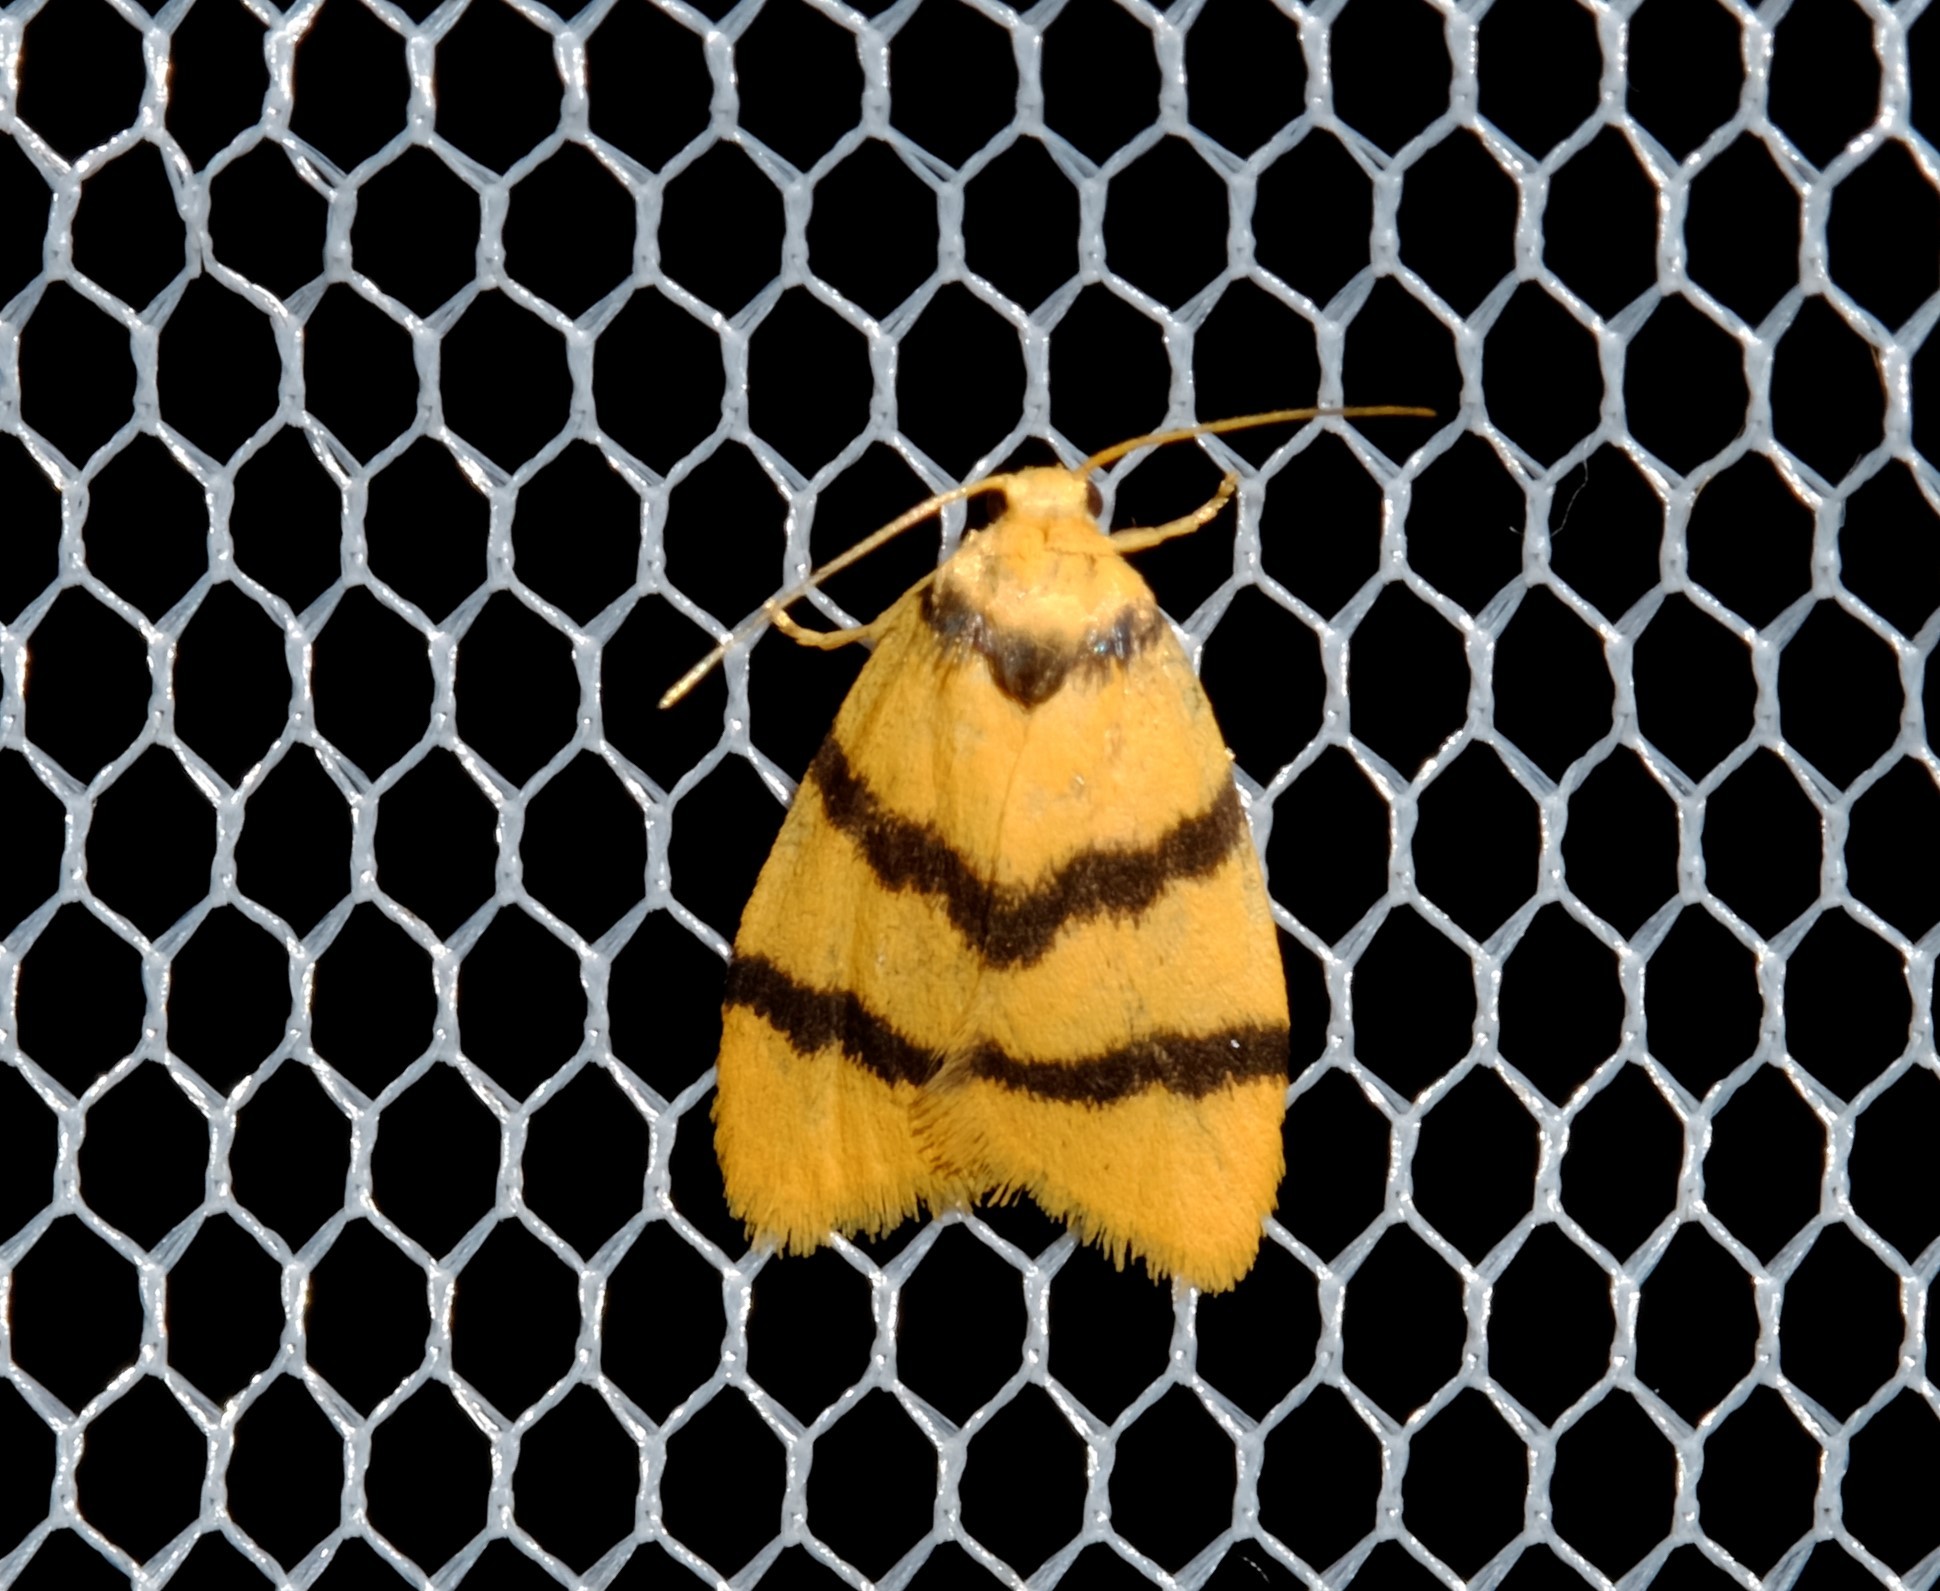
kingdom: Animalia
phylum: Arthropoda
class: Insecta
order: Lepidoptera
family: Erebidae
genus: Heliosia
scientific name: Heliosia jucunda
